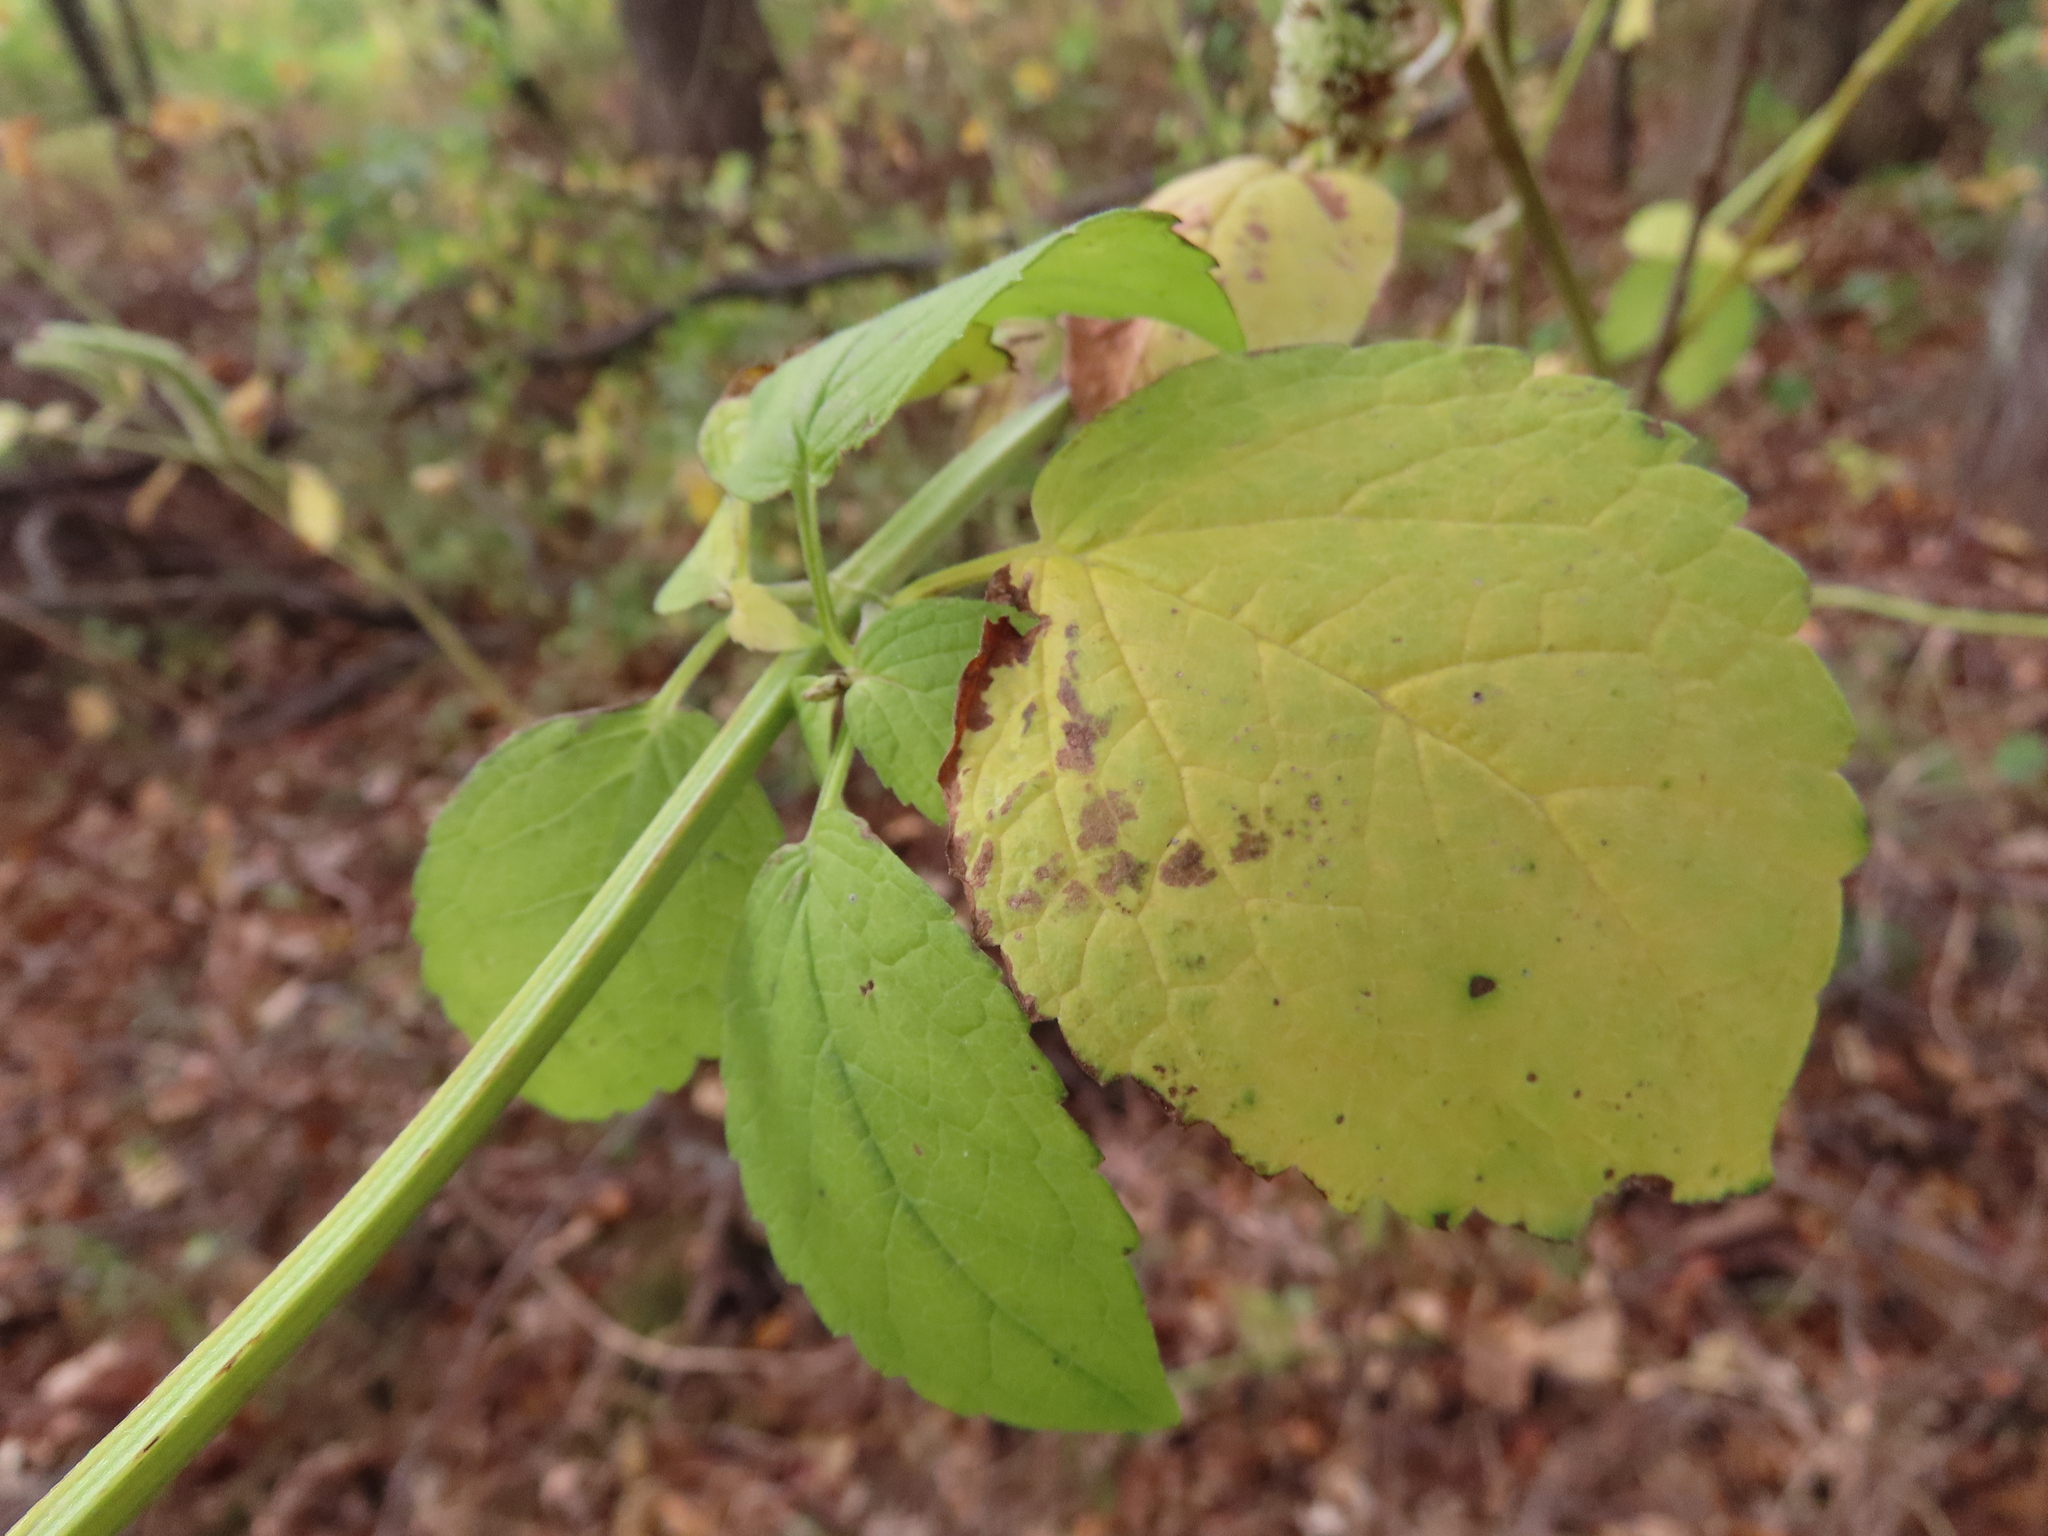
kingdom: Plantae
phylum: Tracheophyta
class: Magnoliopsida
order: Lamiales
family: Lamiaceae
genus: Agastache
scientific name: Agastache scrophulariifolia
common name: Figwort giant hyssop
